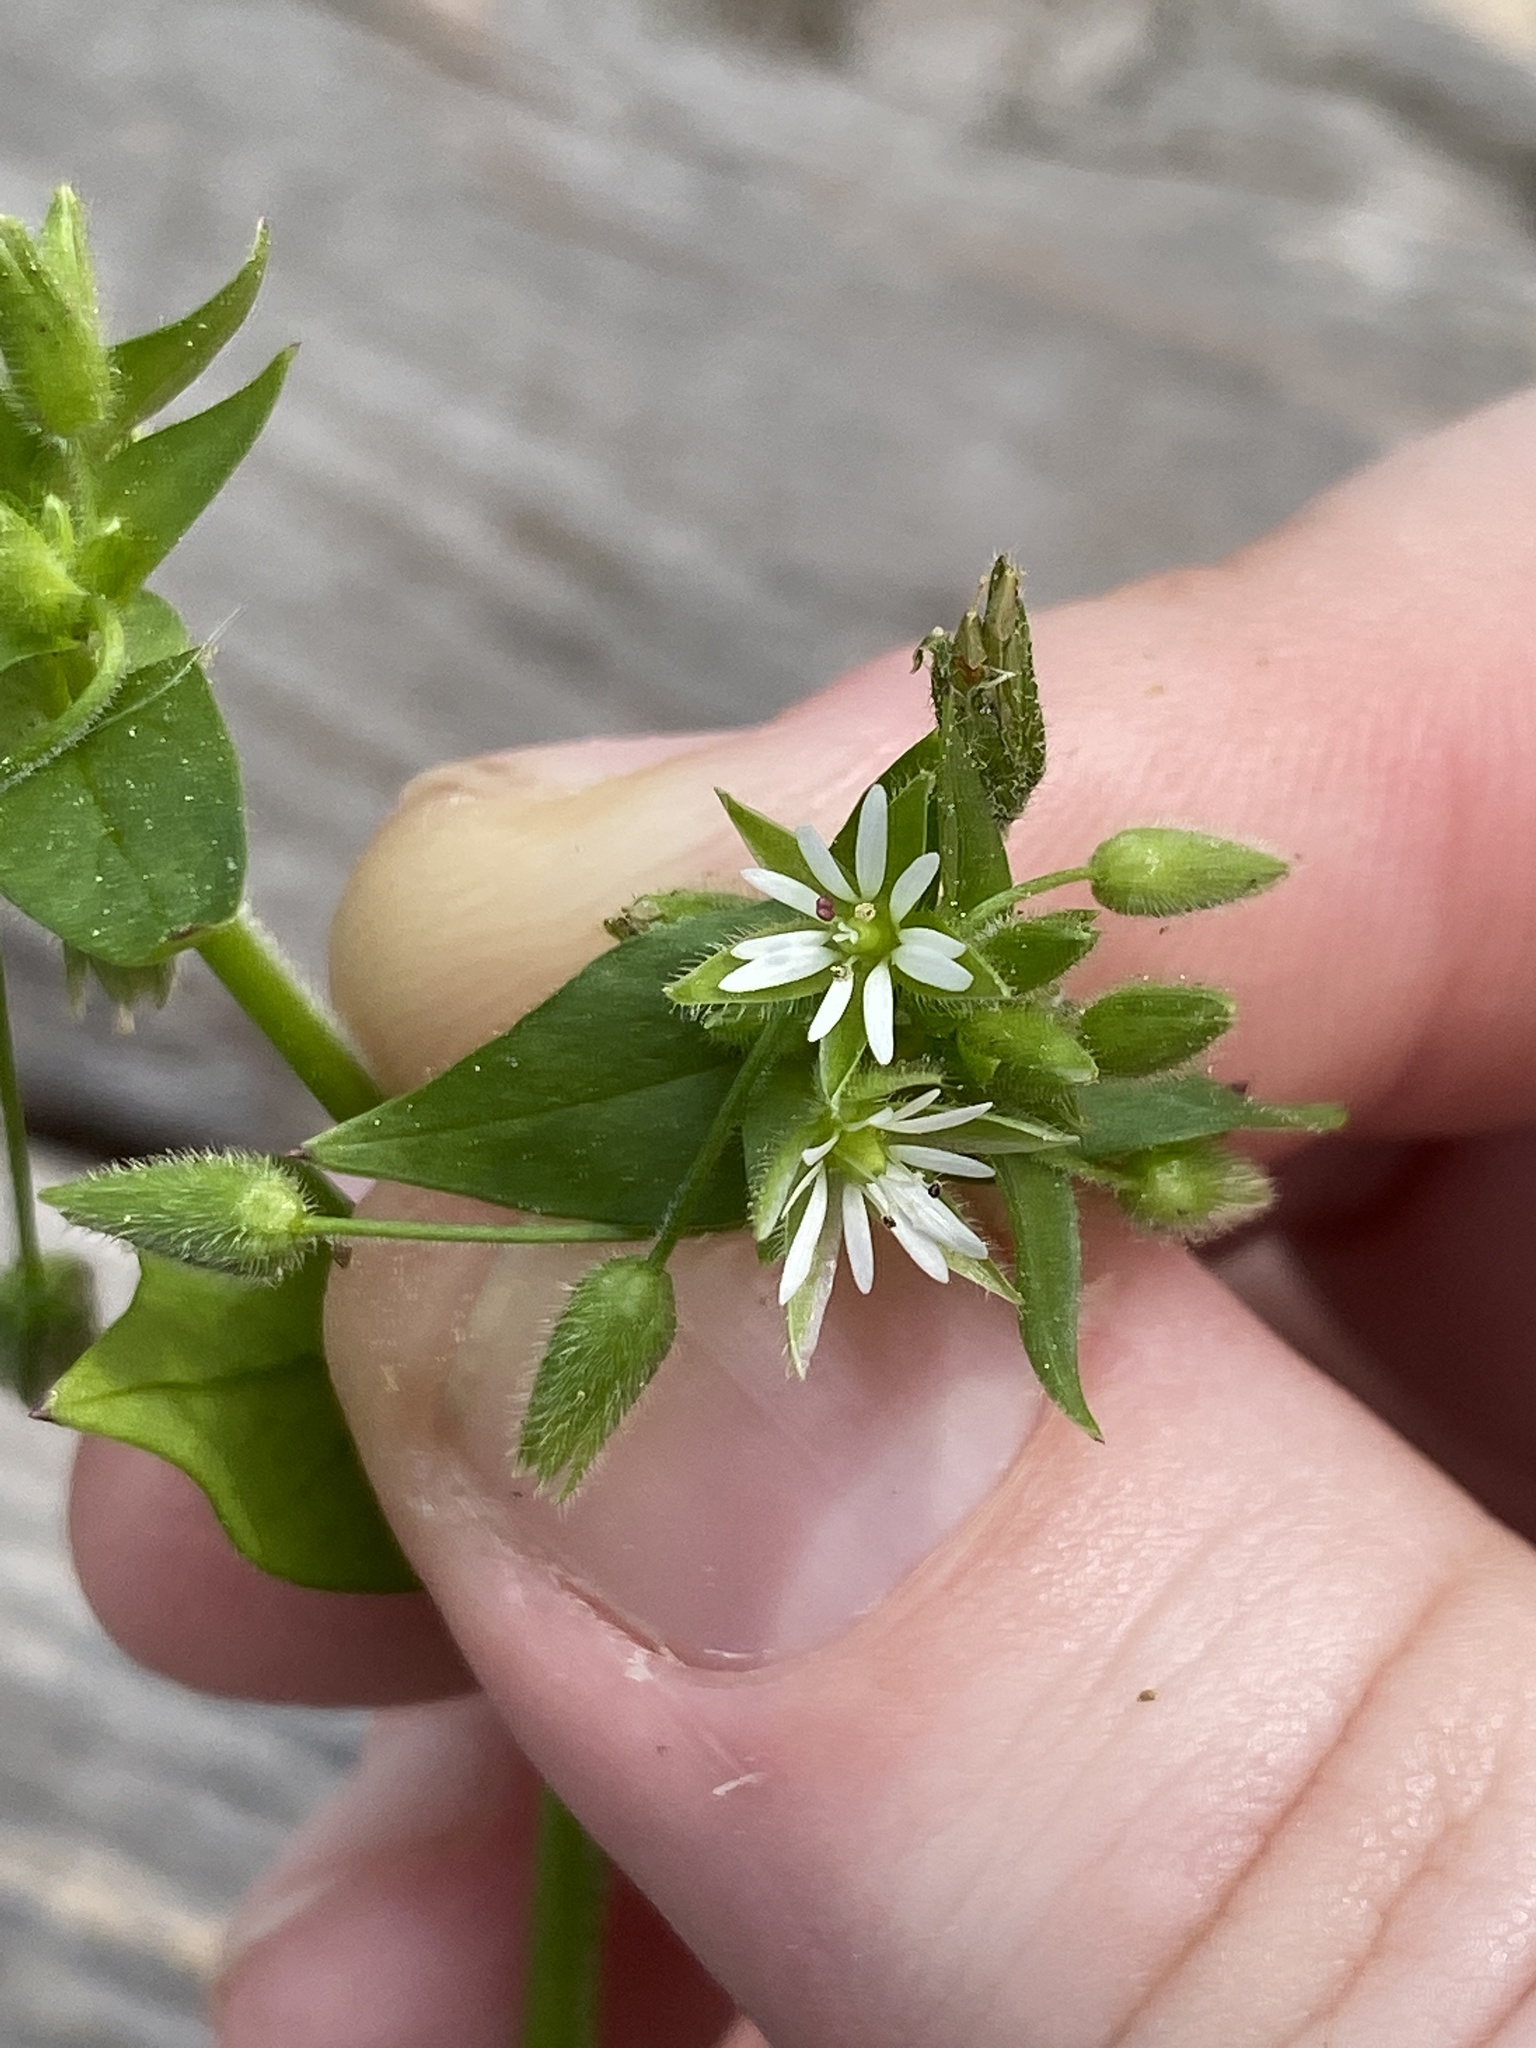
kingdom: Plantae
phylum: Tracheophyta
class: Magnoliopsida
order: Caryophyllales
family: Caryophyllaceae
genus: Stellaria
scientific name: Stellaria media
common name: Common chickweed
